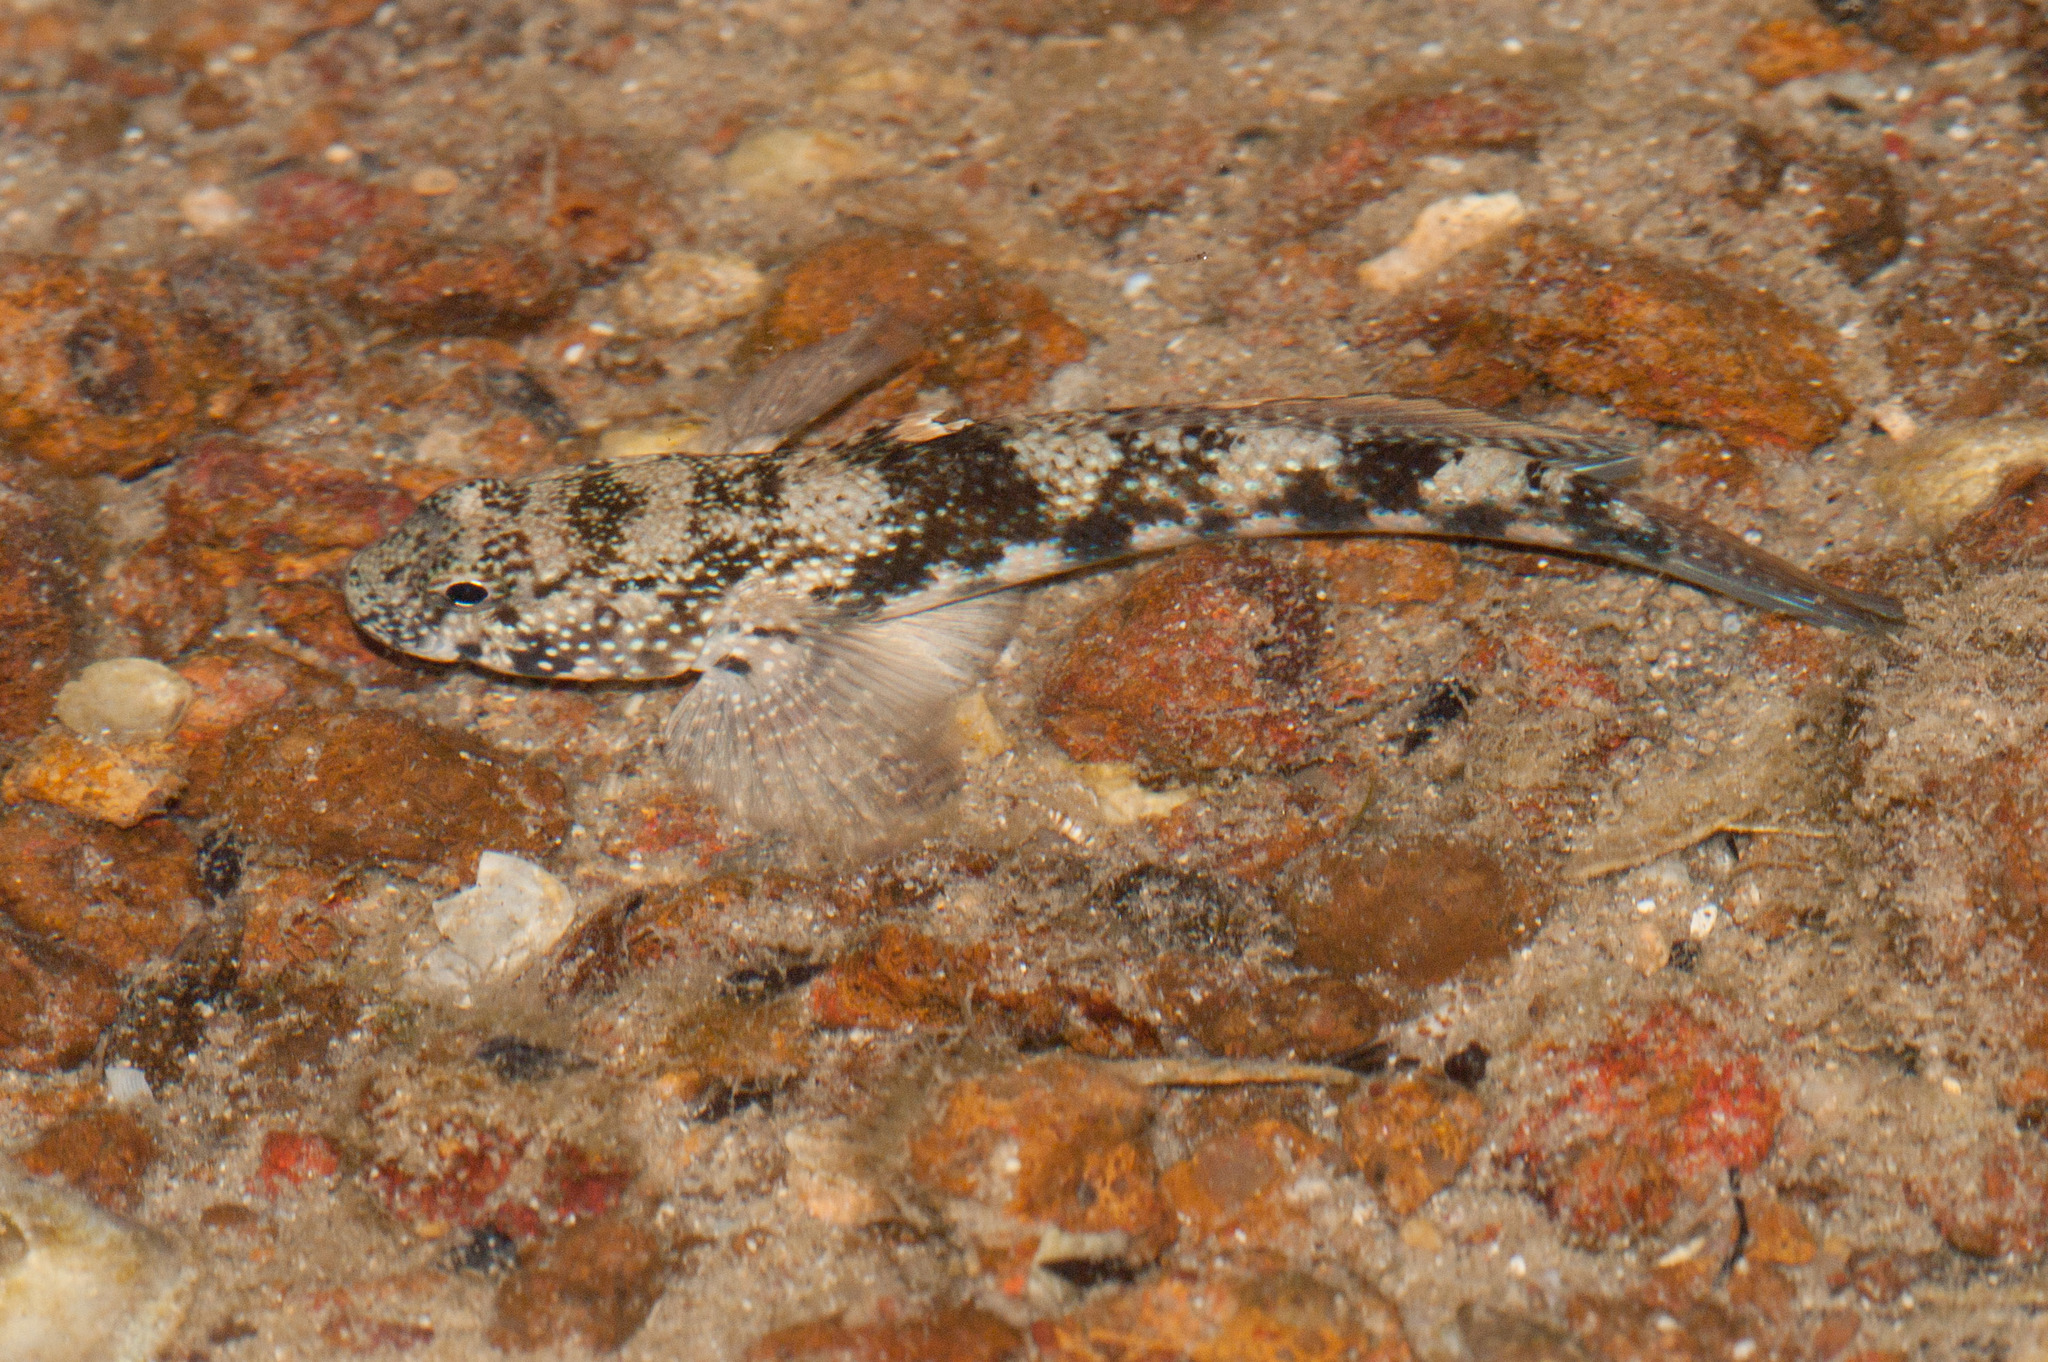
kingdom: Animalia
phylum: Chordata
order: Perciformes
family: Gobiidae
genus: Bathygobius
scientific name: Bathygobius fuscus
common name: Dusky frillgoby
